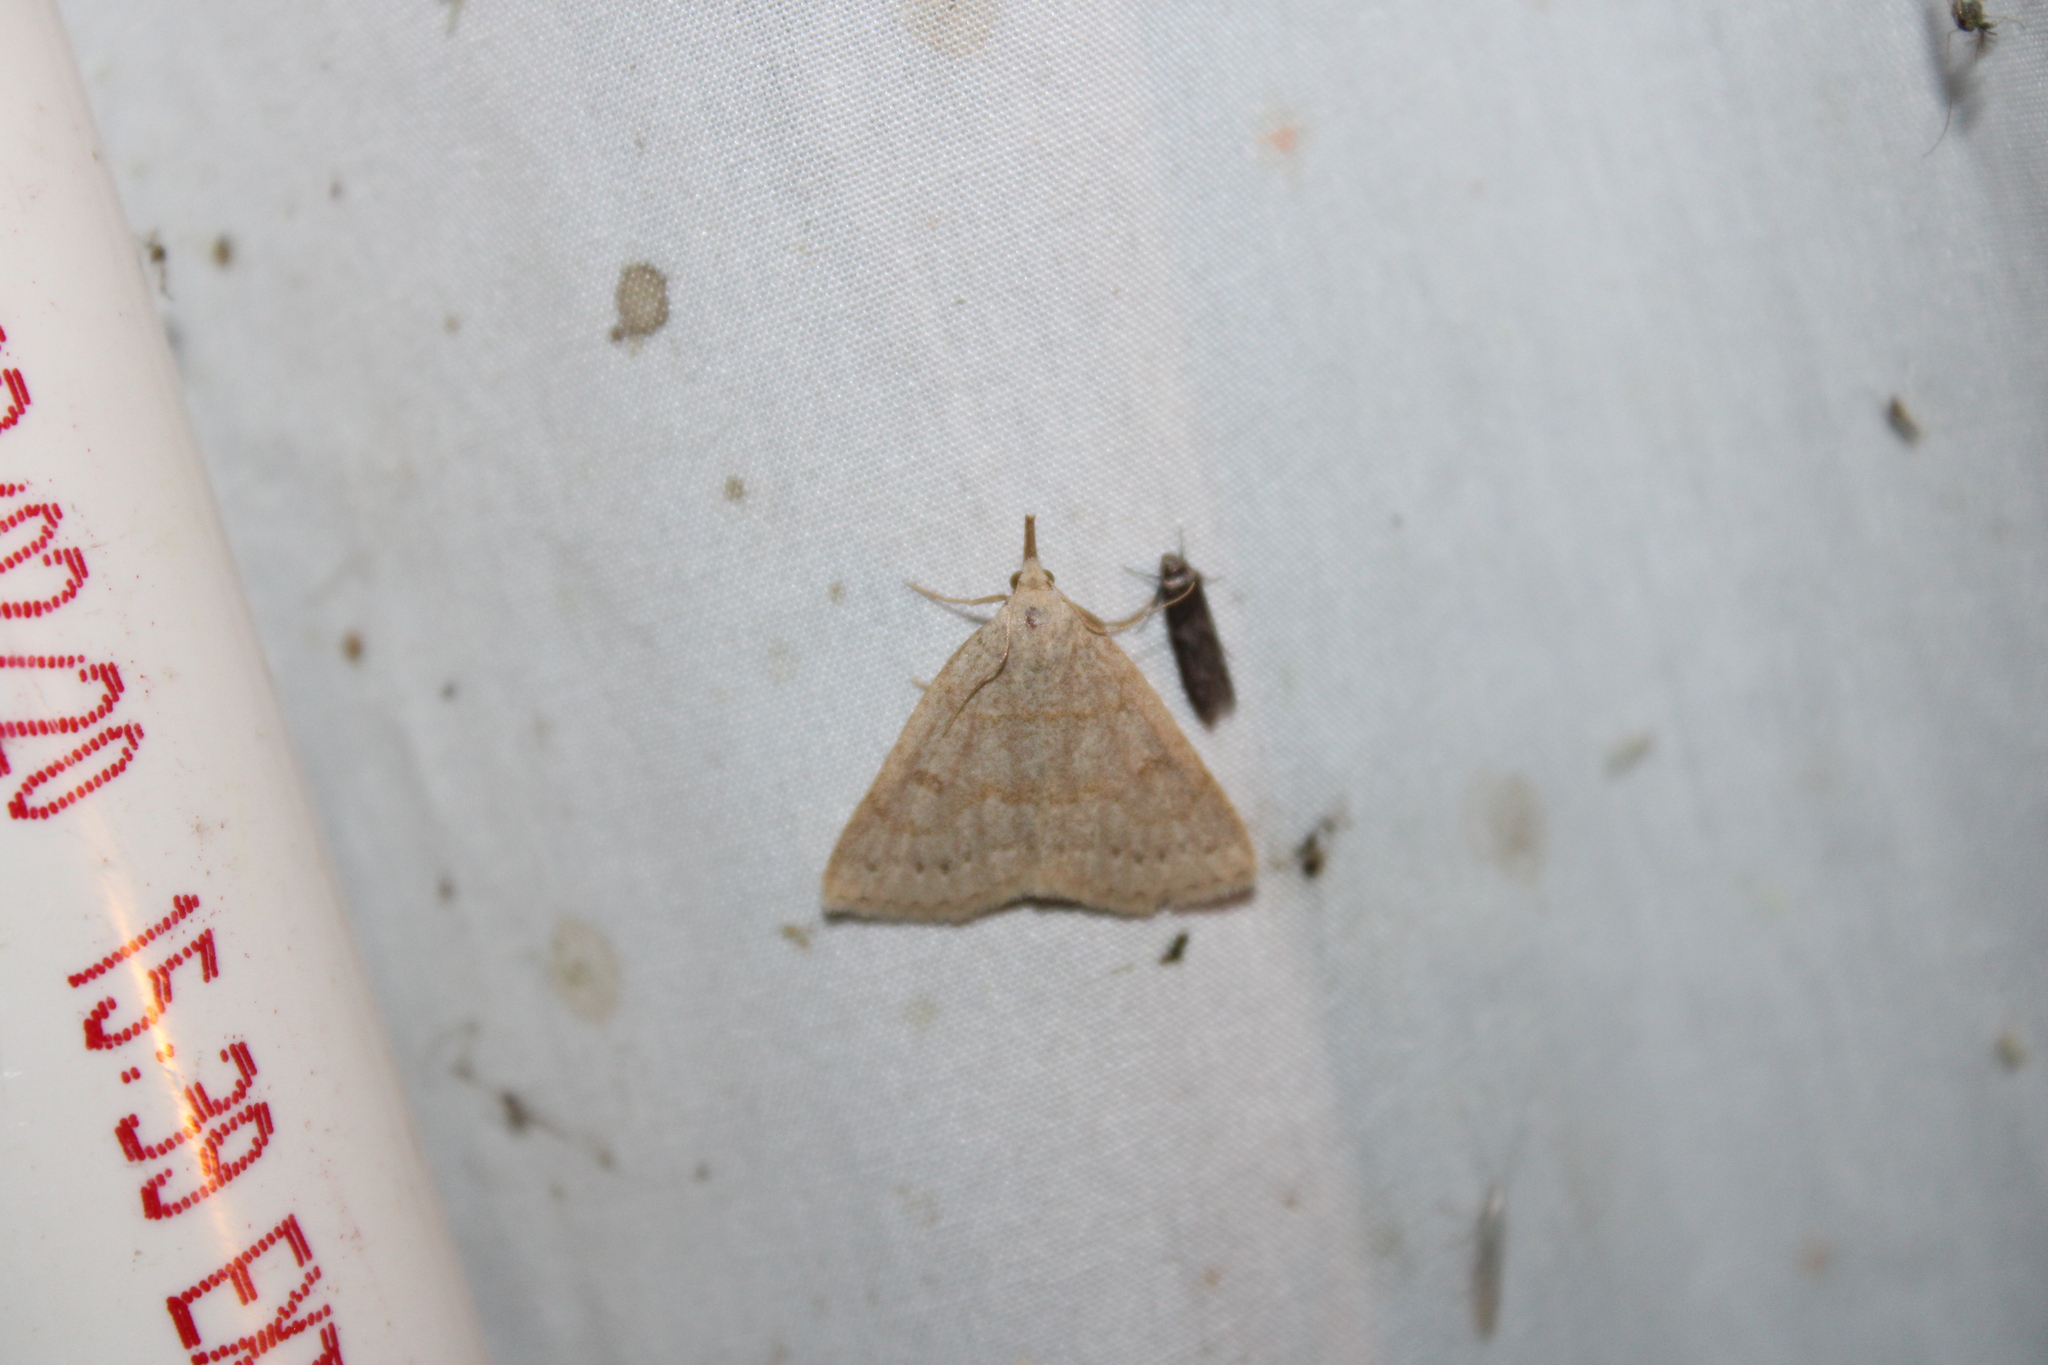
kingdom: Animalia
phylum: Arthropoda
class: Insecta
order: Lepidoptera
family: Erebidae
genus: Macrochilo
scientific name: Macrochilo morbidalis
